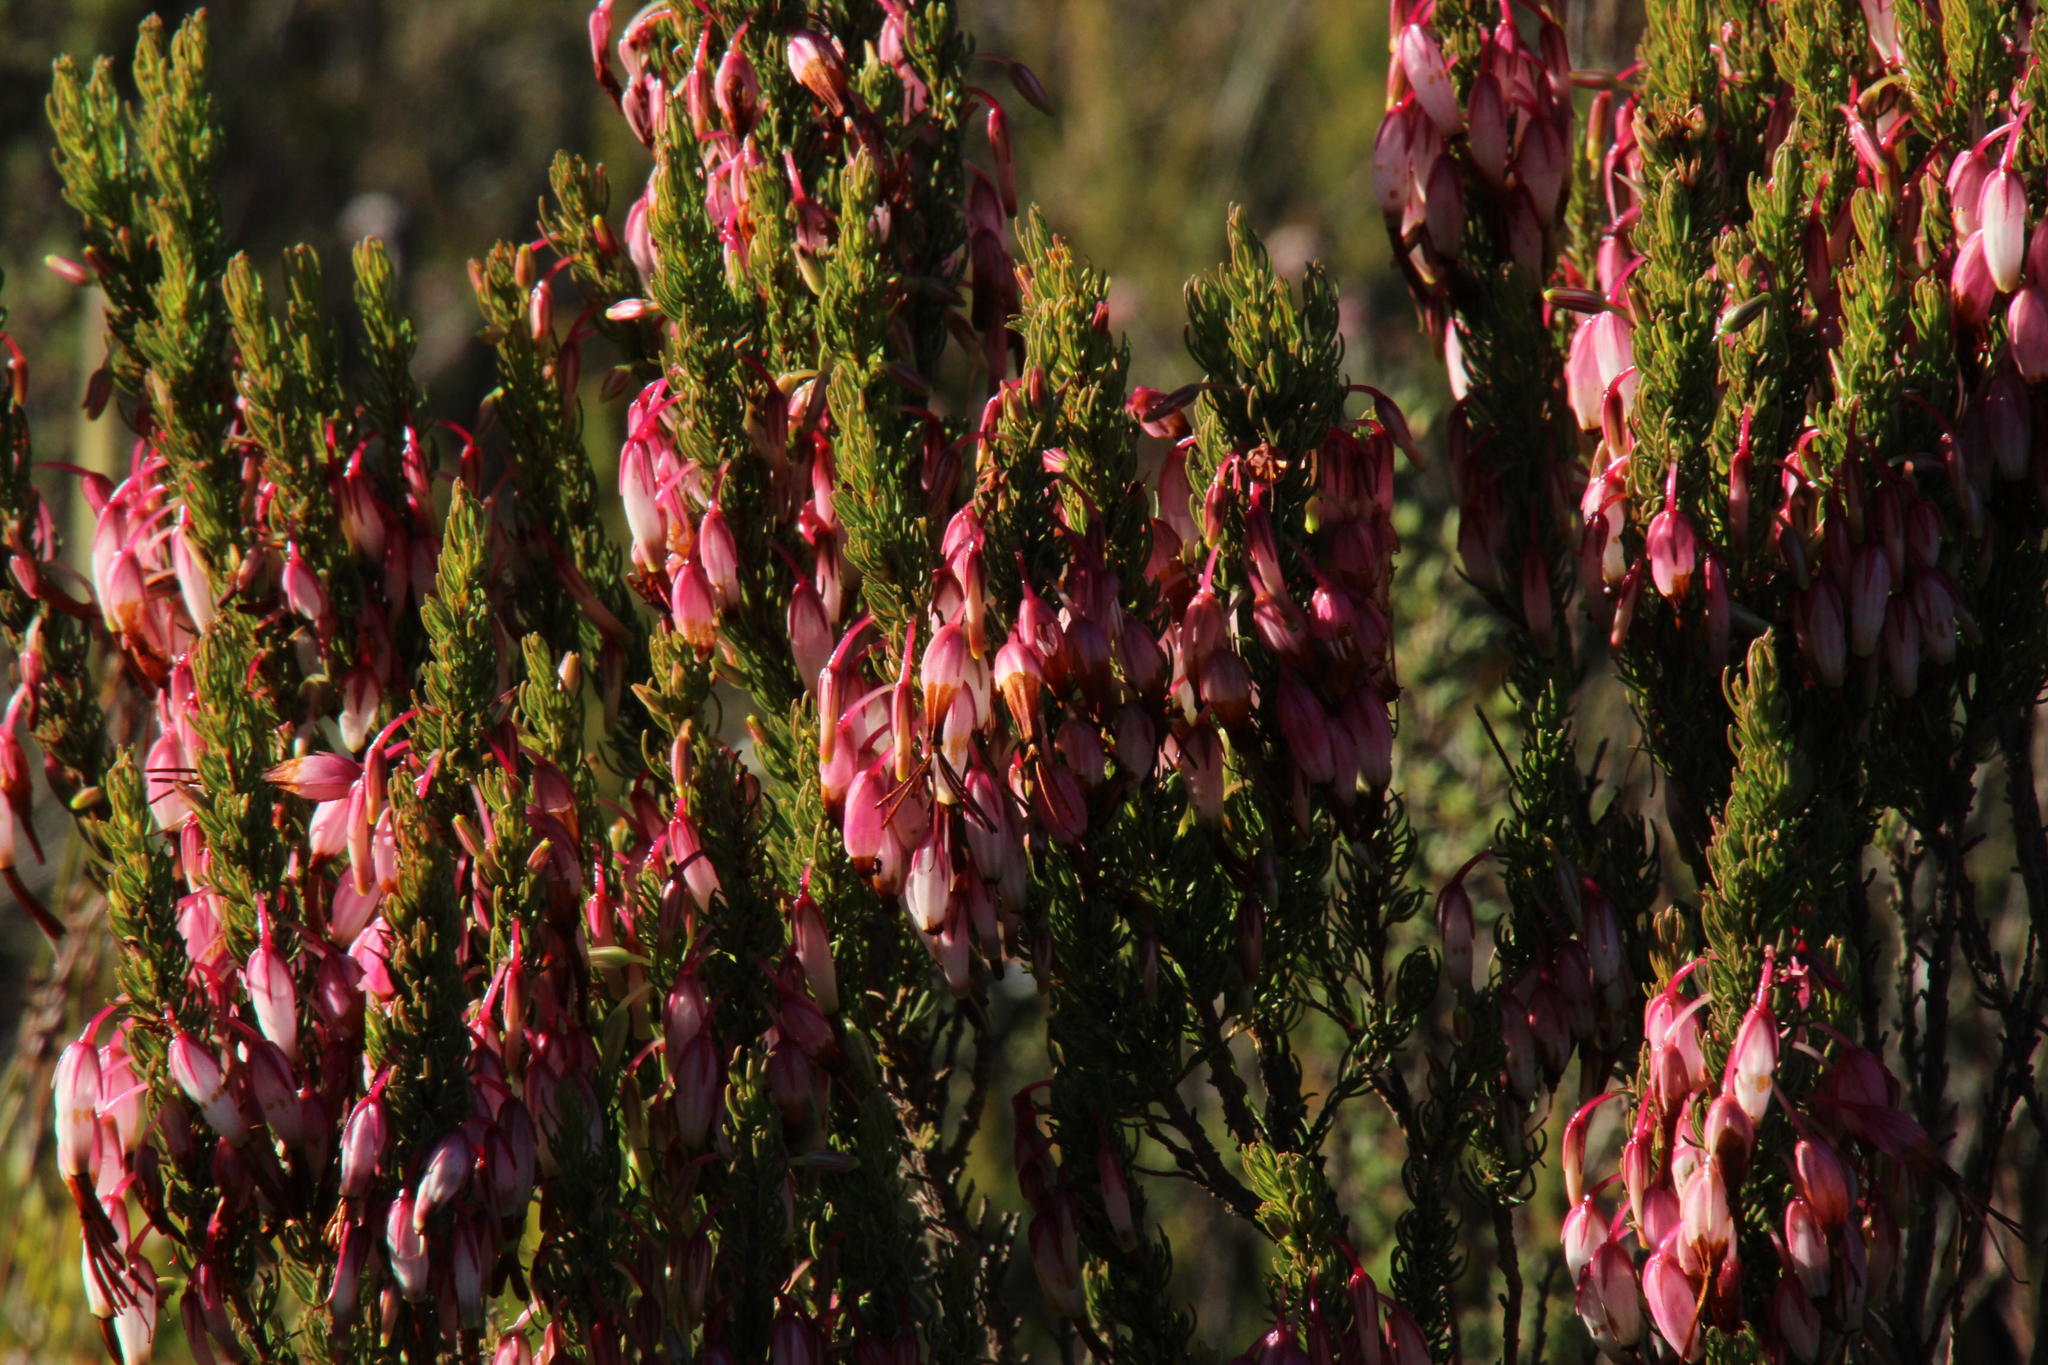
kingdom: Plantae
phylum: Tracheophyta
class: Magnoliopsida
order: Ericales
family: Ericaceae
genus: Erica
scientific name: Erica plukenetii
